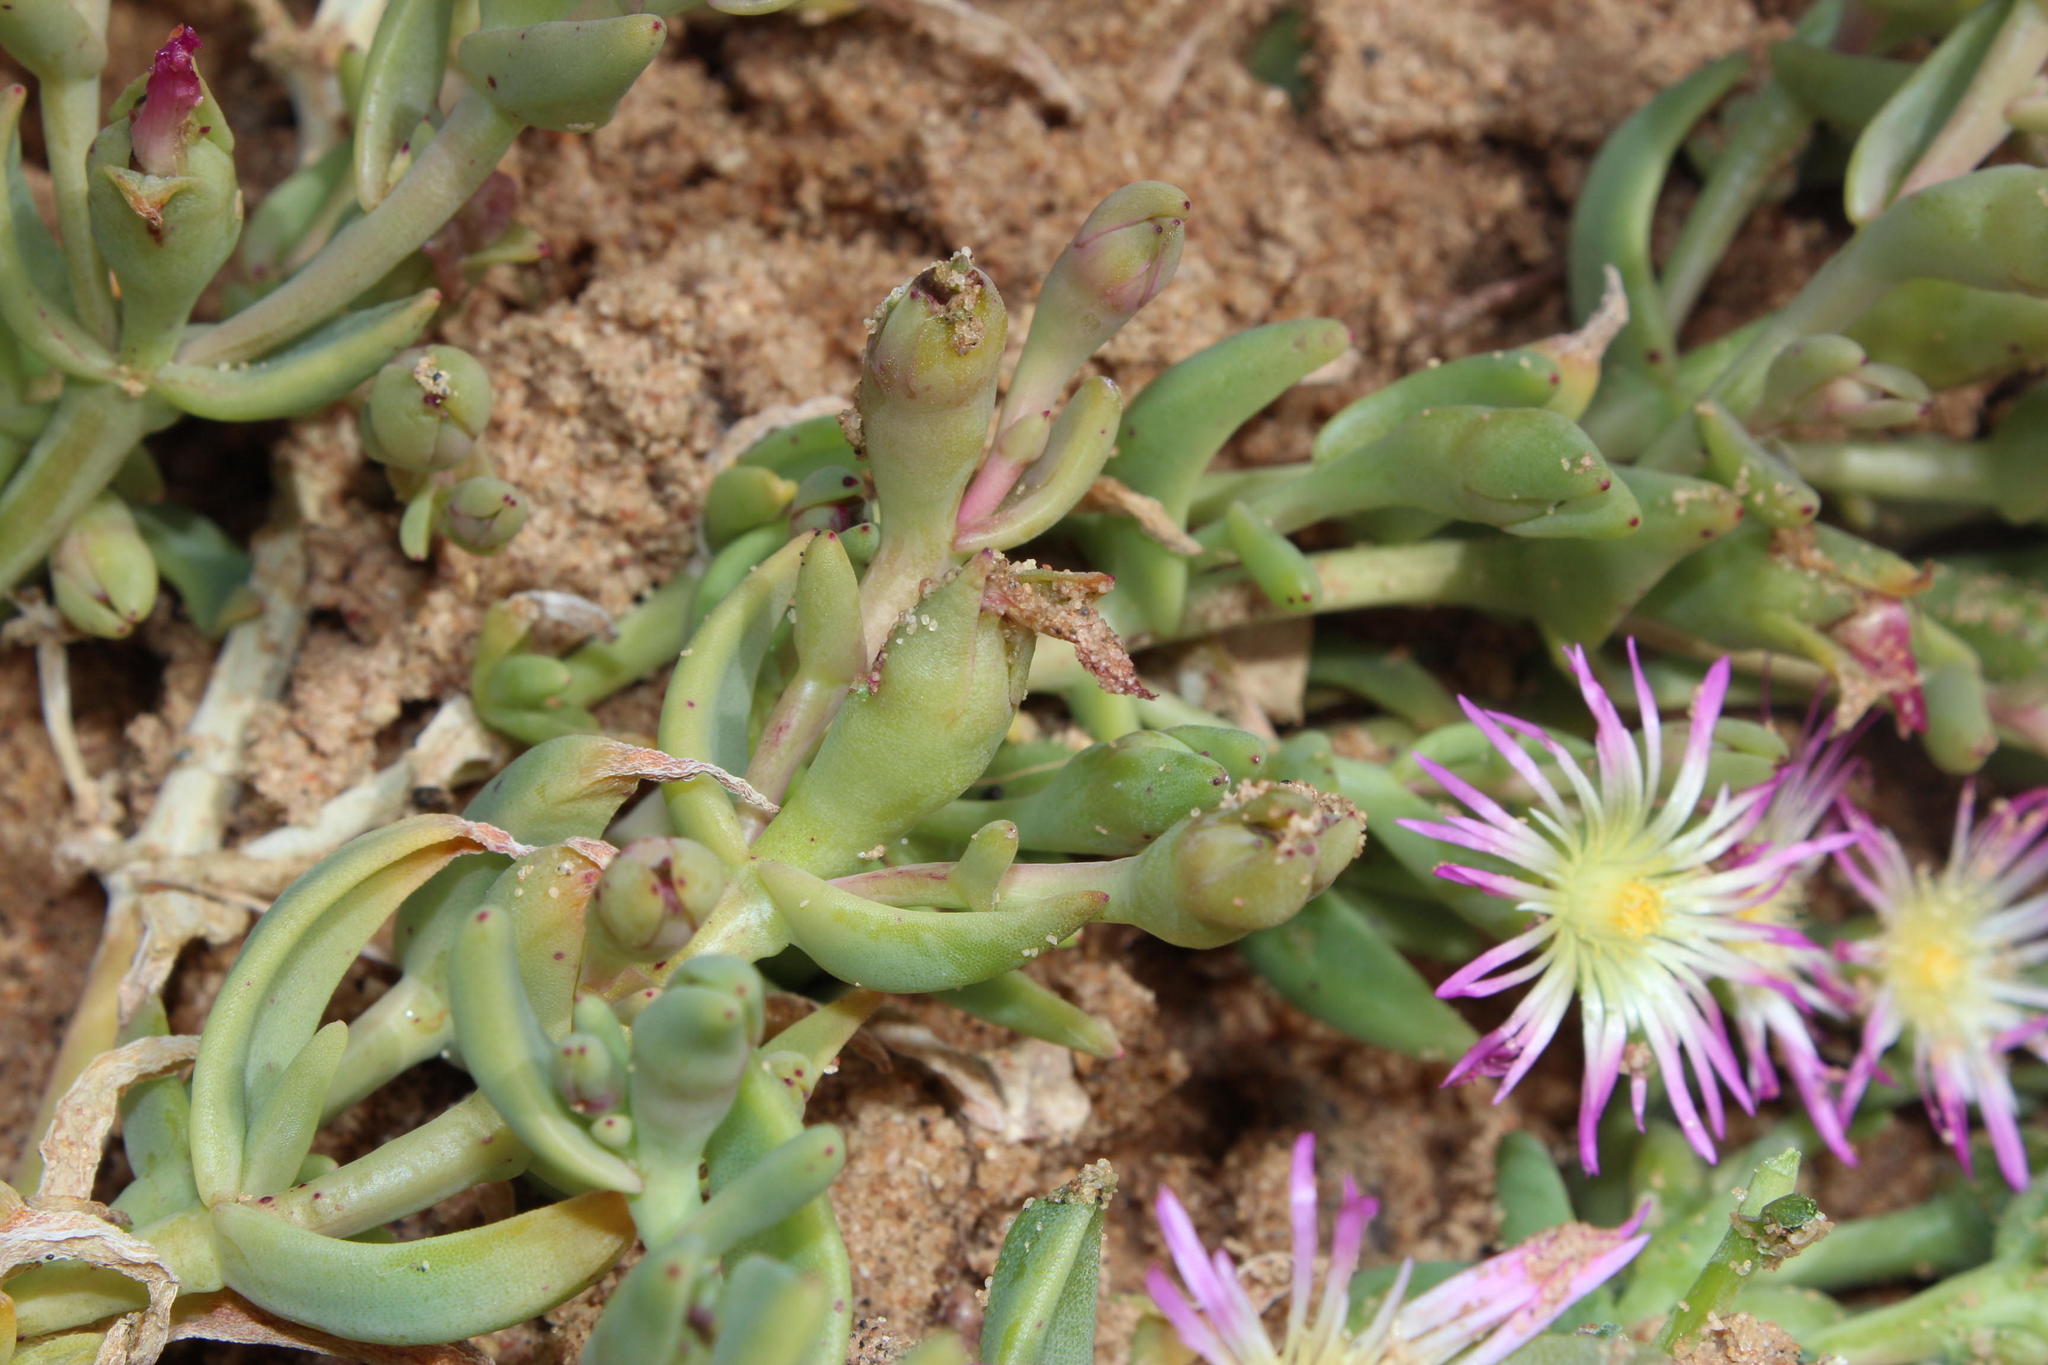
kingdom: Plantae
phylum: Tracheophyta
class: Magnoliopsida
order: Caryophyllales
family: Aizoaceae
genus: Mesembryanthemum
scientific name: Mesembryanthemum pallens
